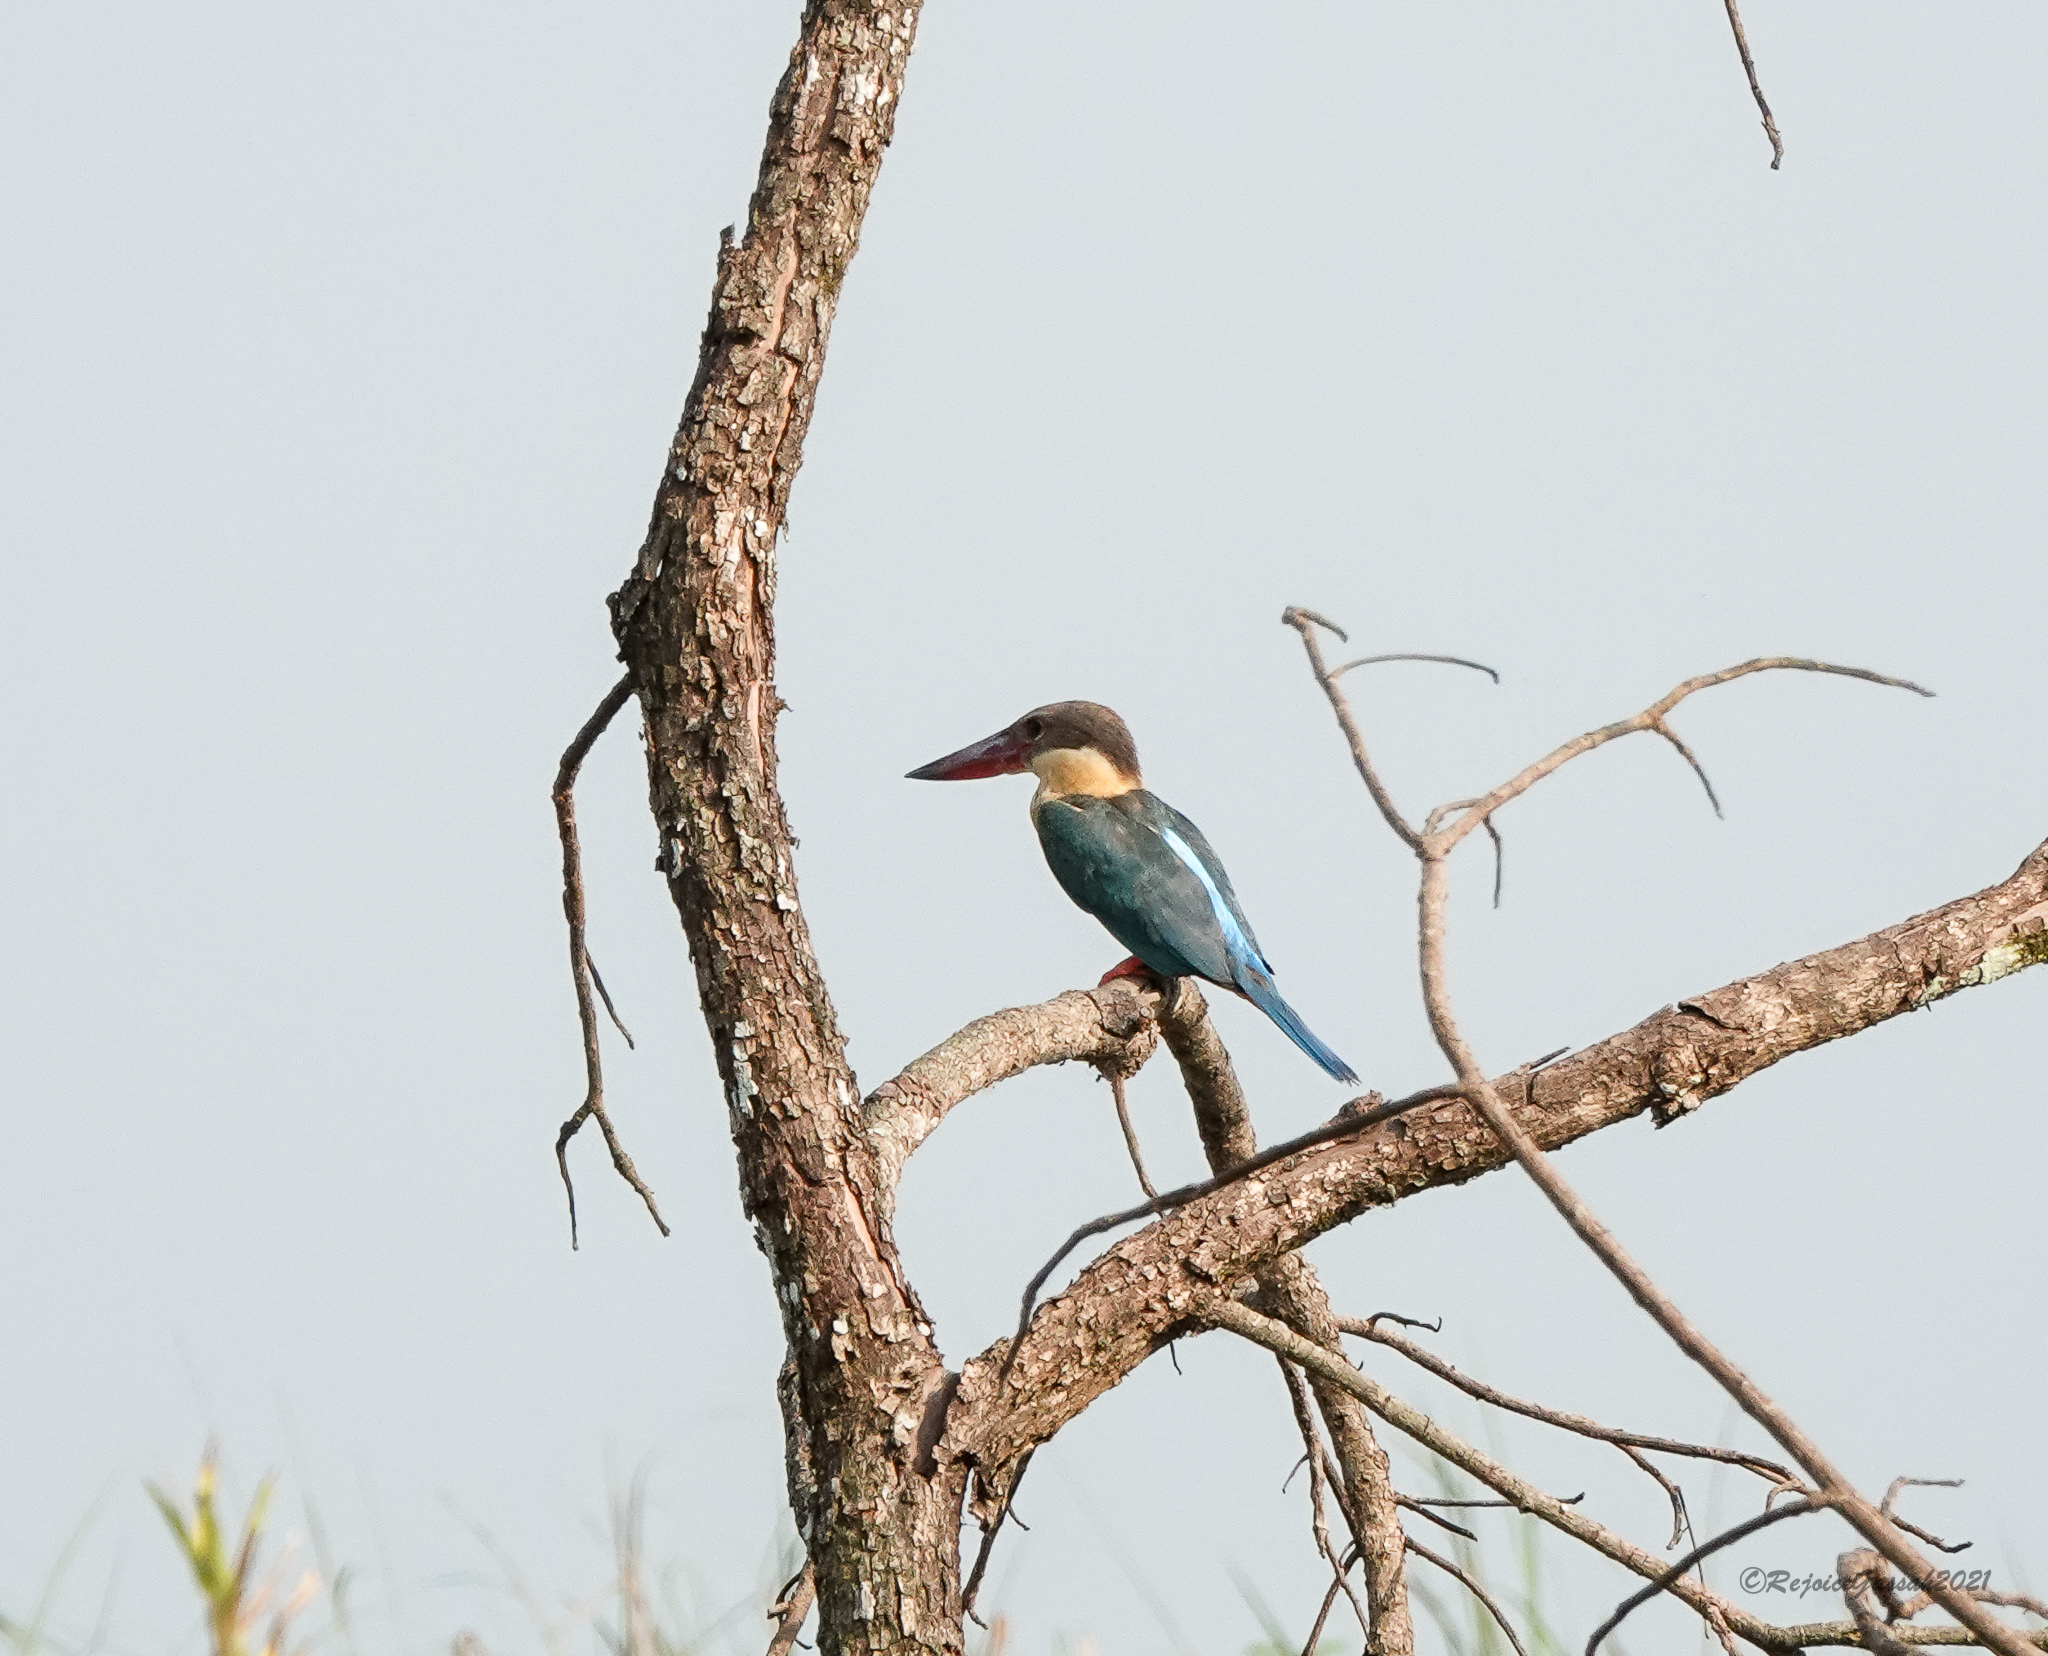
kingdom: Animalia
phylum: Chordata
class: Aves
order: Coraciiformes
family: Alcedinidae
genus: Pelargopsis
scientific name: Pelargopsis capensis
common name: Stork-billed kingfisher
